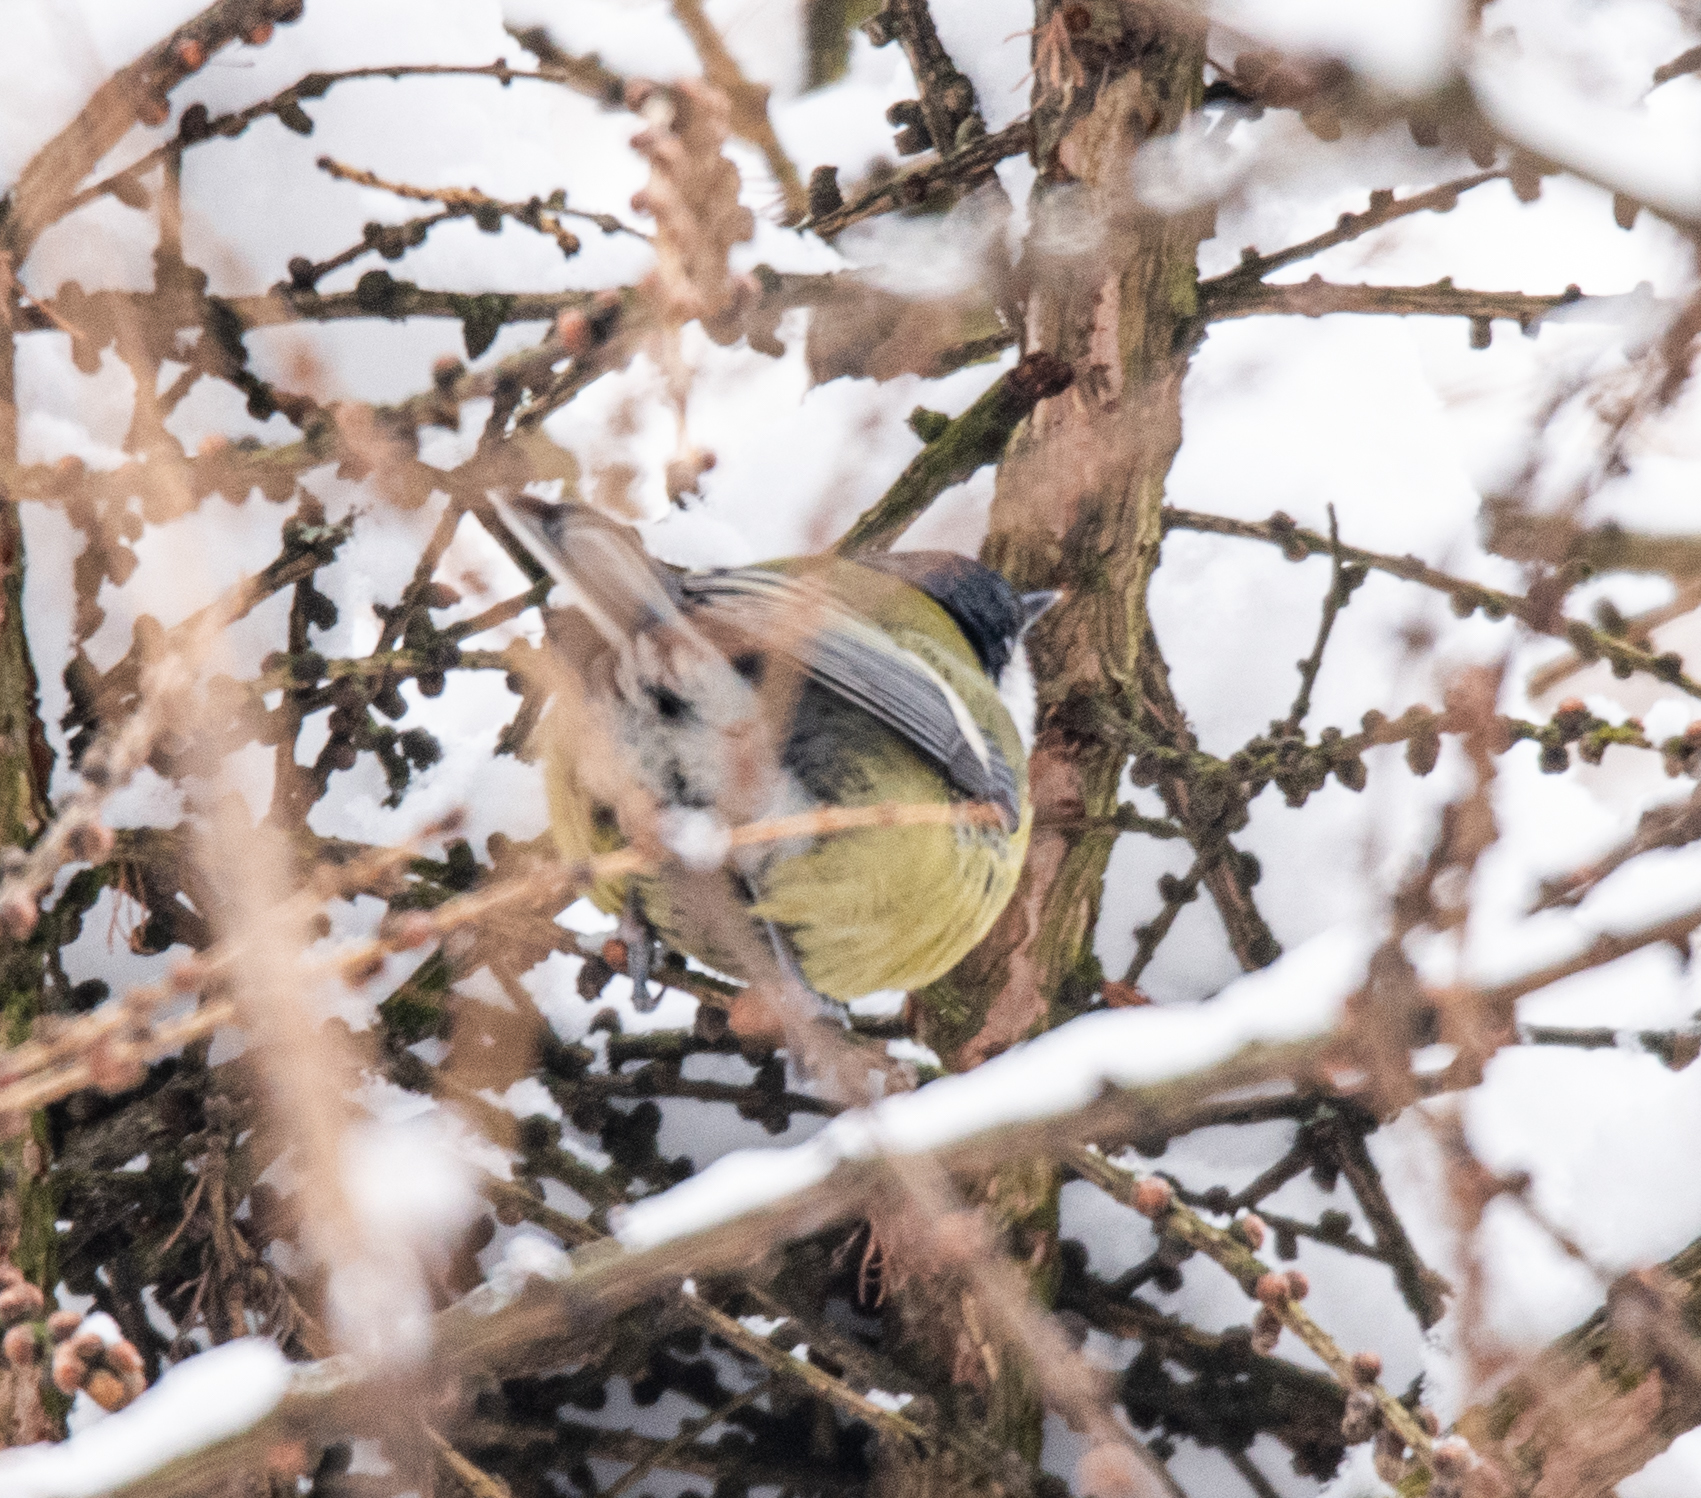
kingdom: Animalia
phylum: Chordata
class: Aves
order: Passeriformes
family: Paridae
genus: Parus
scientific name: Parus major
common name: Great tit
